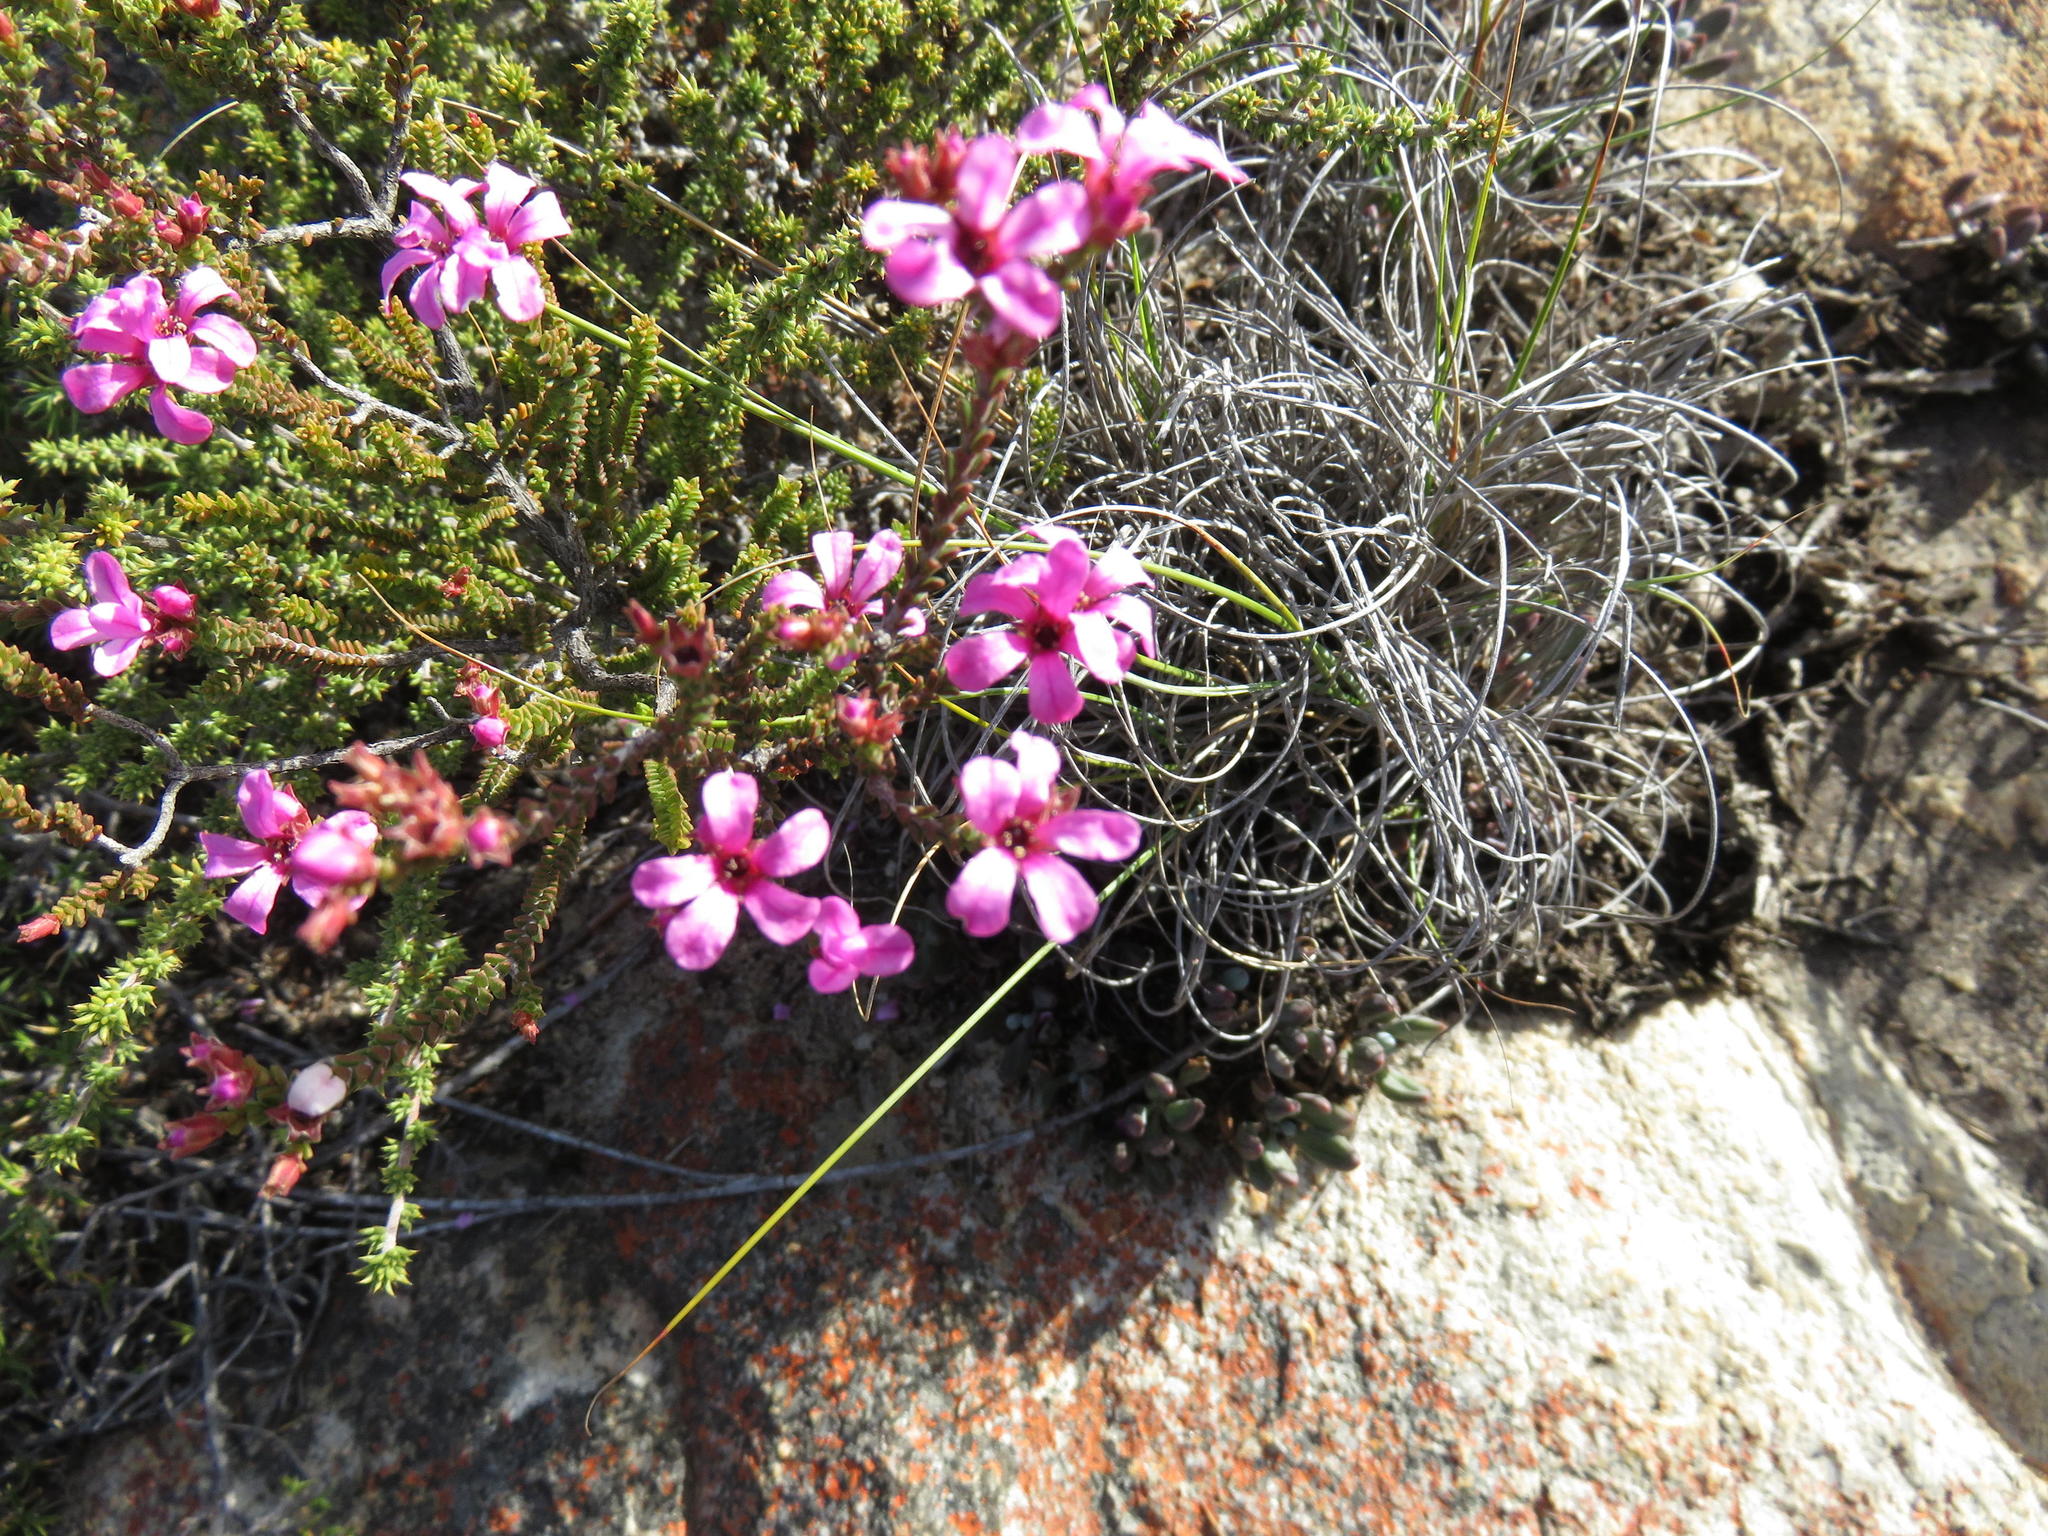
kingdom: Plantae
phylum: Tracheophyta
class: Magnoliopsida
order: Sapindales
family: Rutaceae
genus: Acmadenia
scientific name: Acmadenia sheilae
